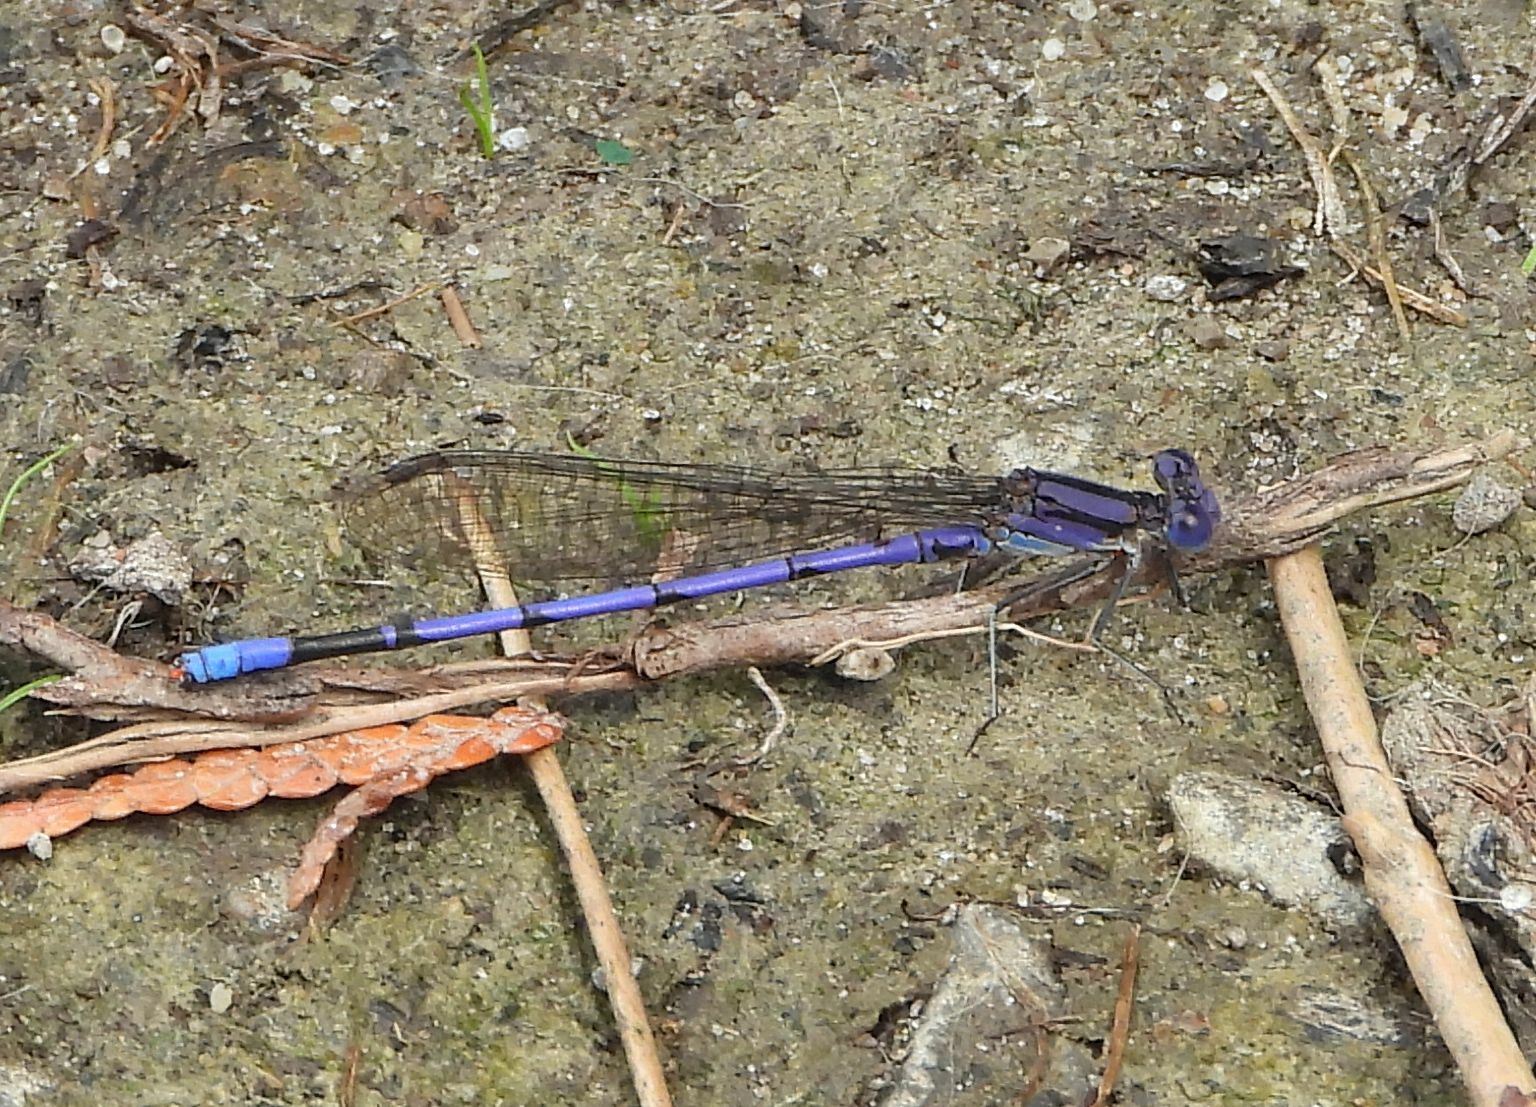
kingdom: Animalia
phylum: Arthropoda
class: Insecta
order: Odonata
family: Coenagrionidae
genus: Argia
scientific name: Argia fumipennis
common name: Variable dancer
